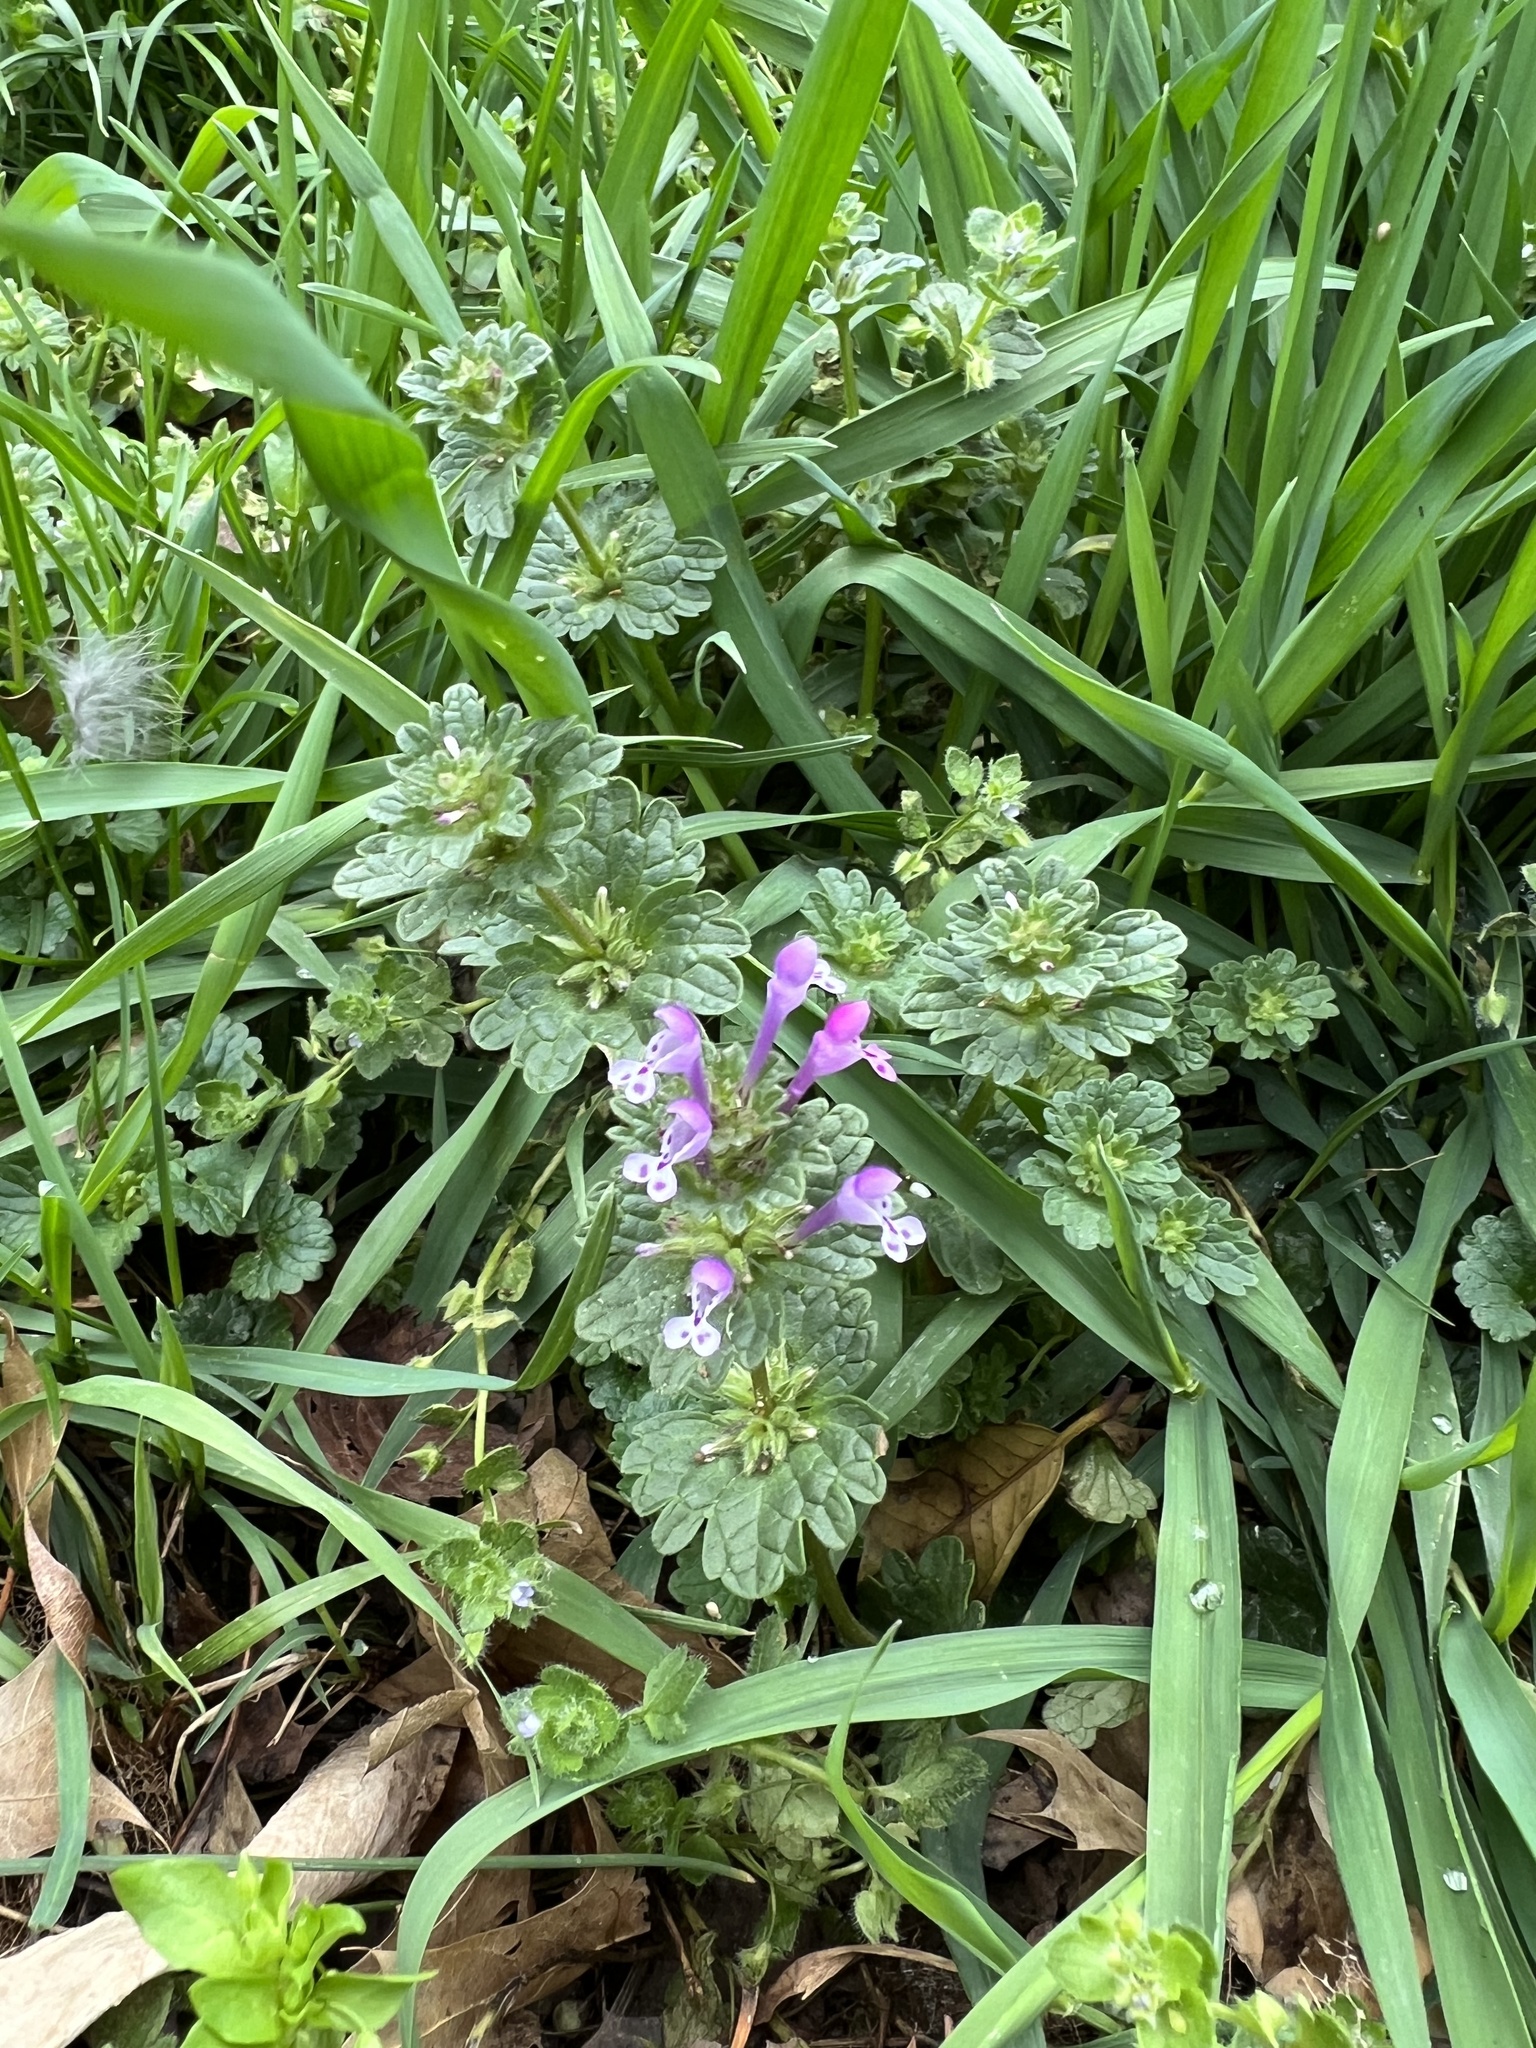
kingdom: Plantae
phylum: Tracheophyta
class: Magnoliopsida
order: Lamiales
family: Lamiaceae
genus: Lamium
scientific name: Lamium amplexicaule
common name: Henbit dead-nettle
